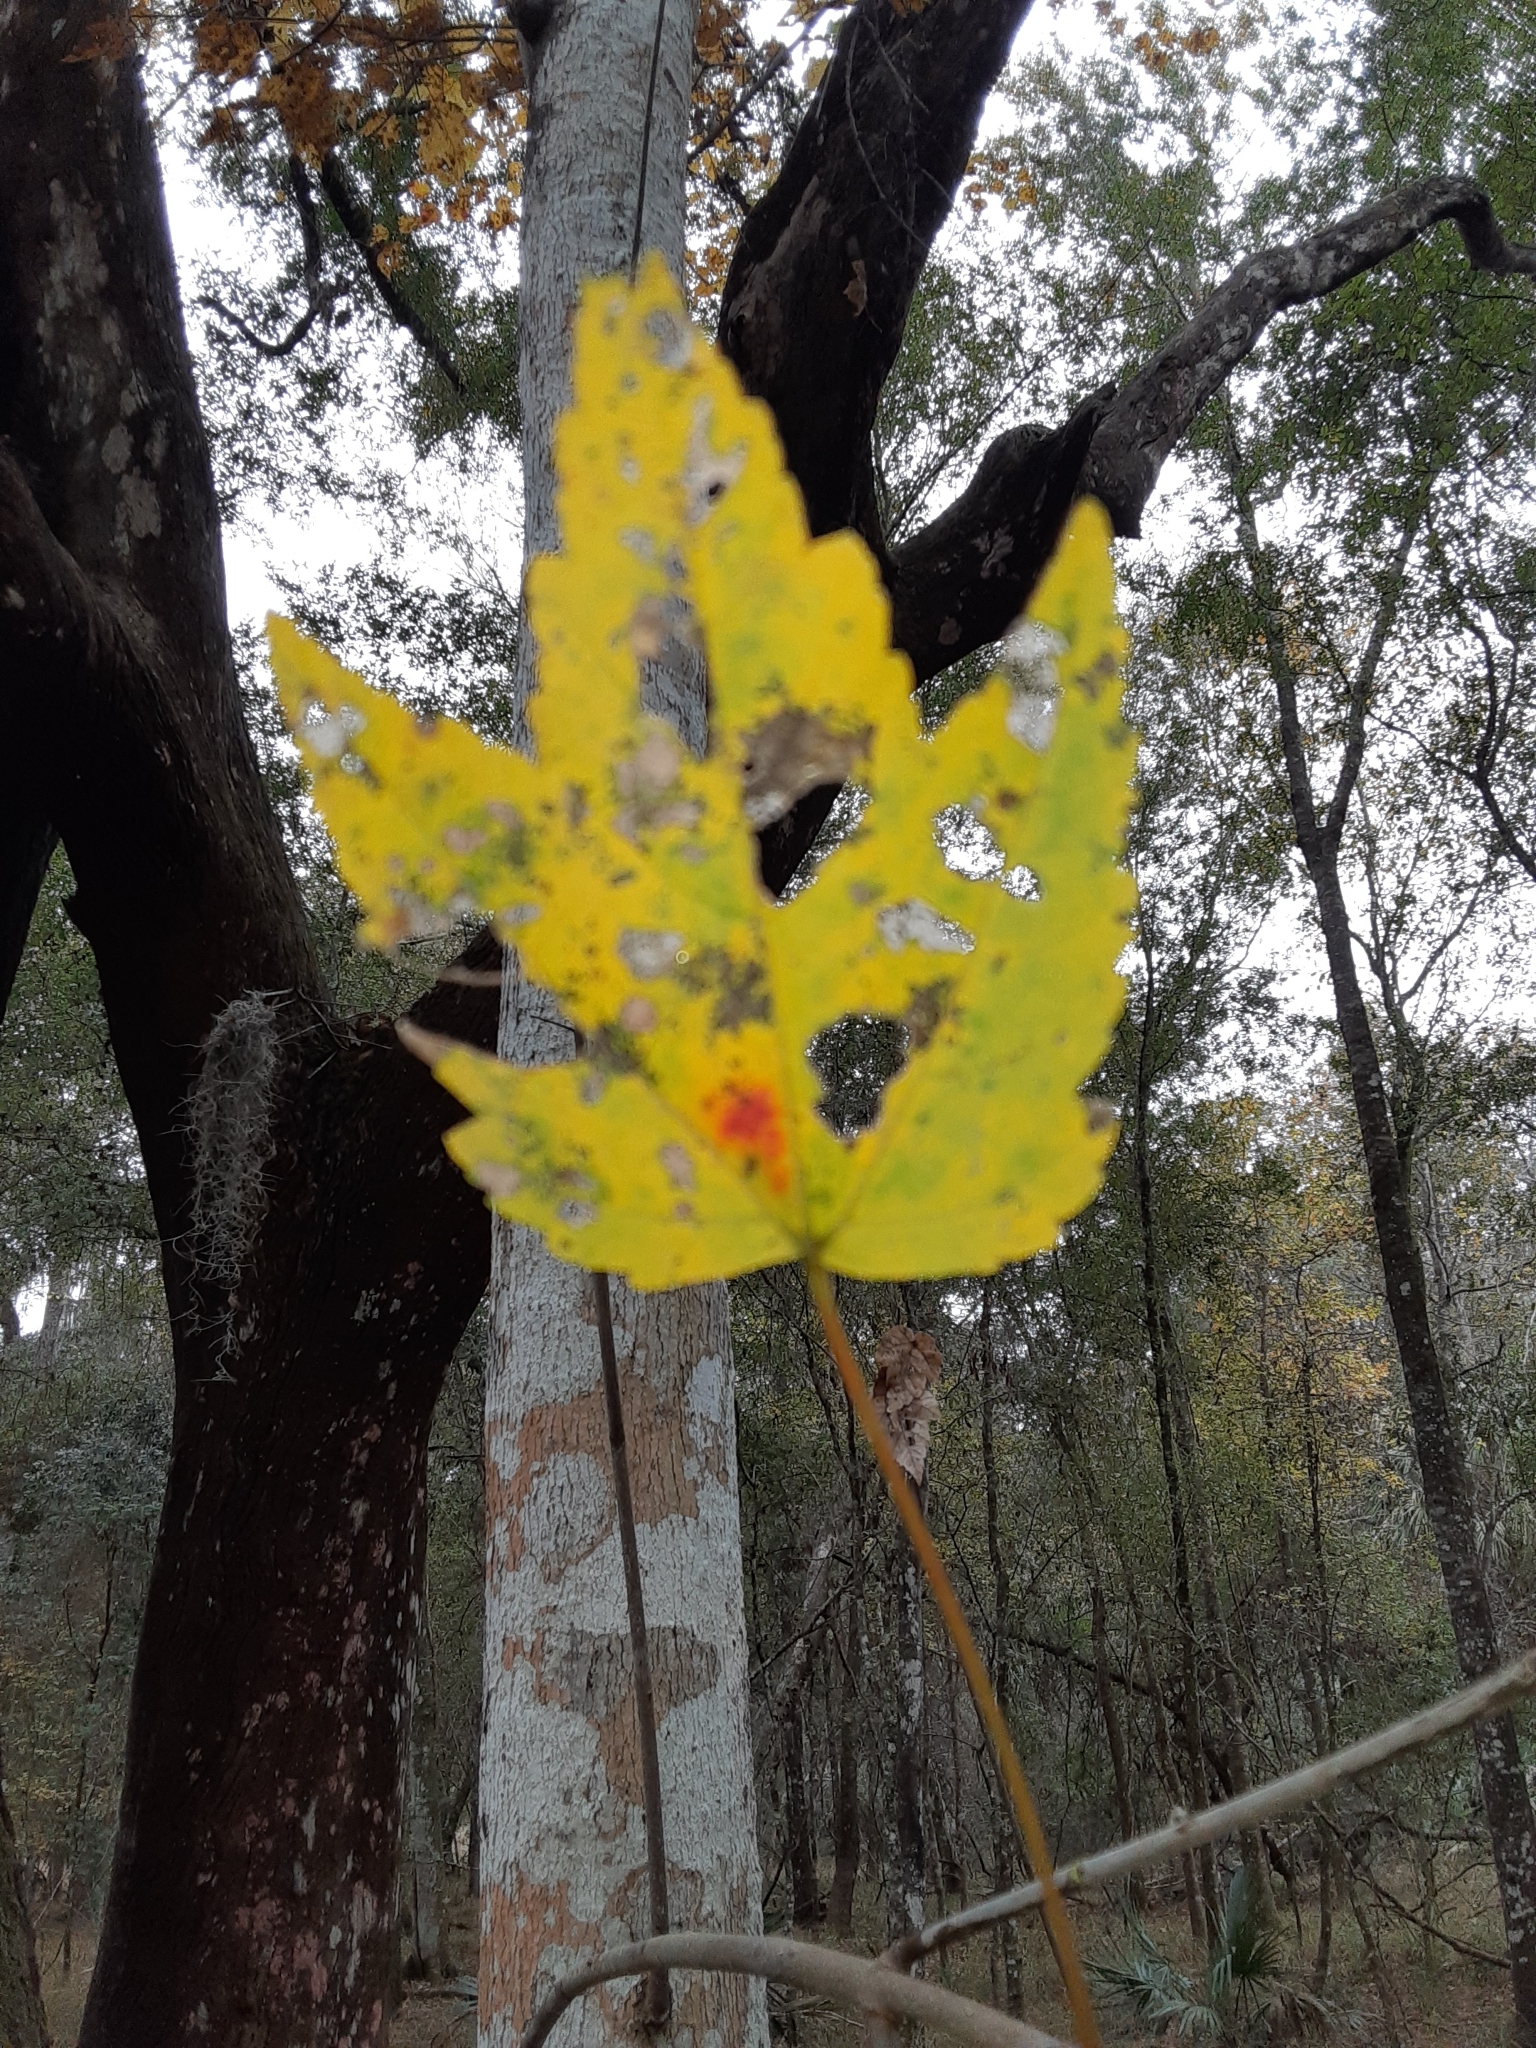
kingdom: Plantae
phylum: Tracheophyta
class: Magnoliopsida
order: Sapindales
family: Sapindaceae
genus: Acer
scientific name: Acer rubrum
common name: Red maple
